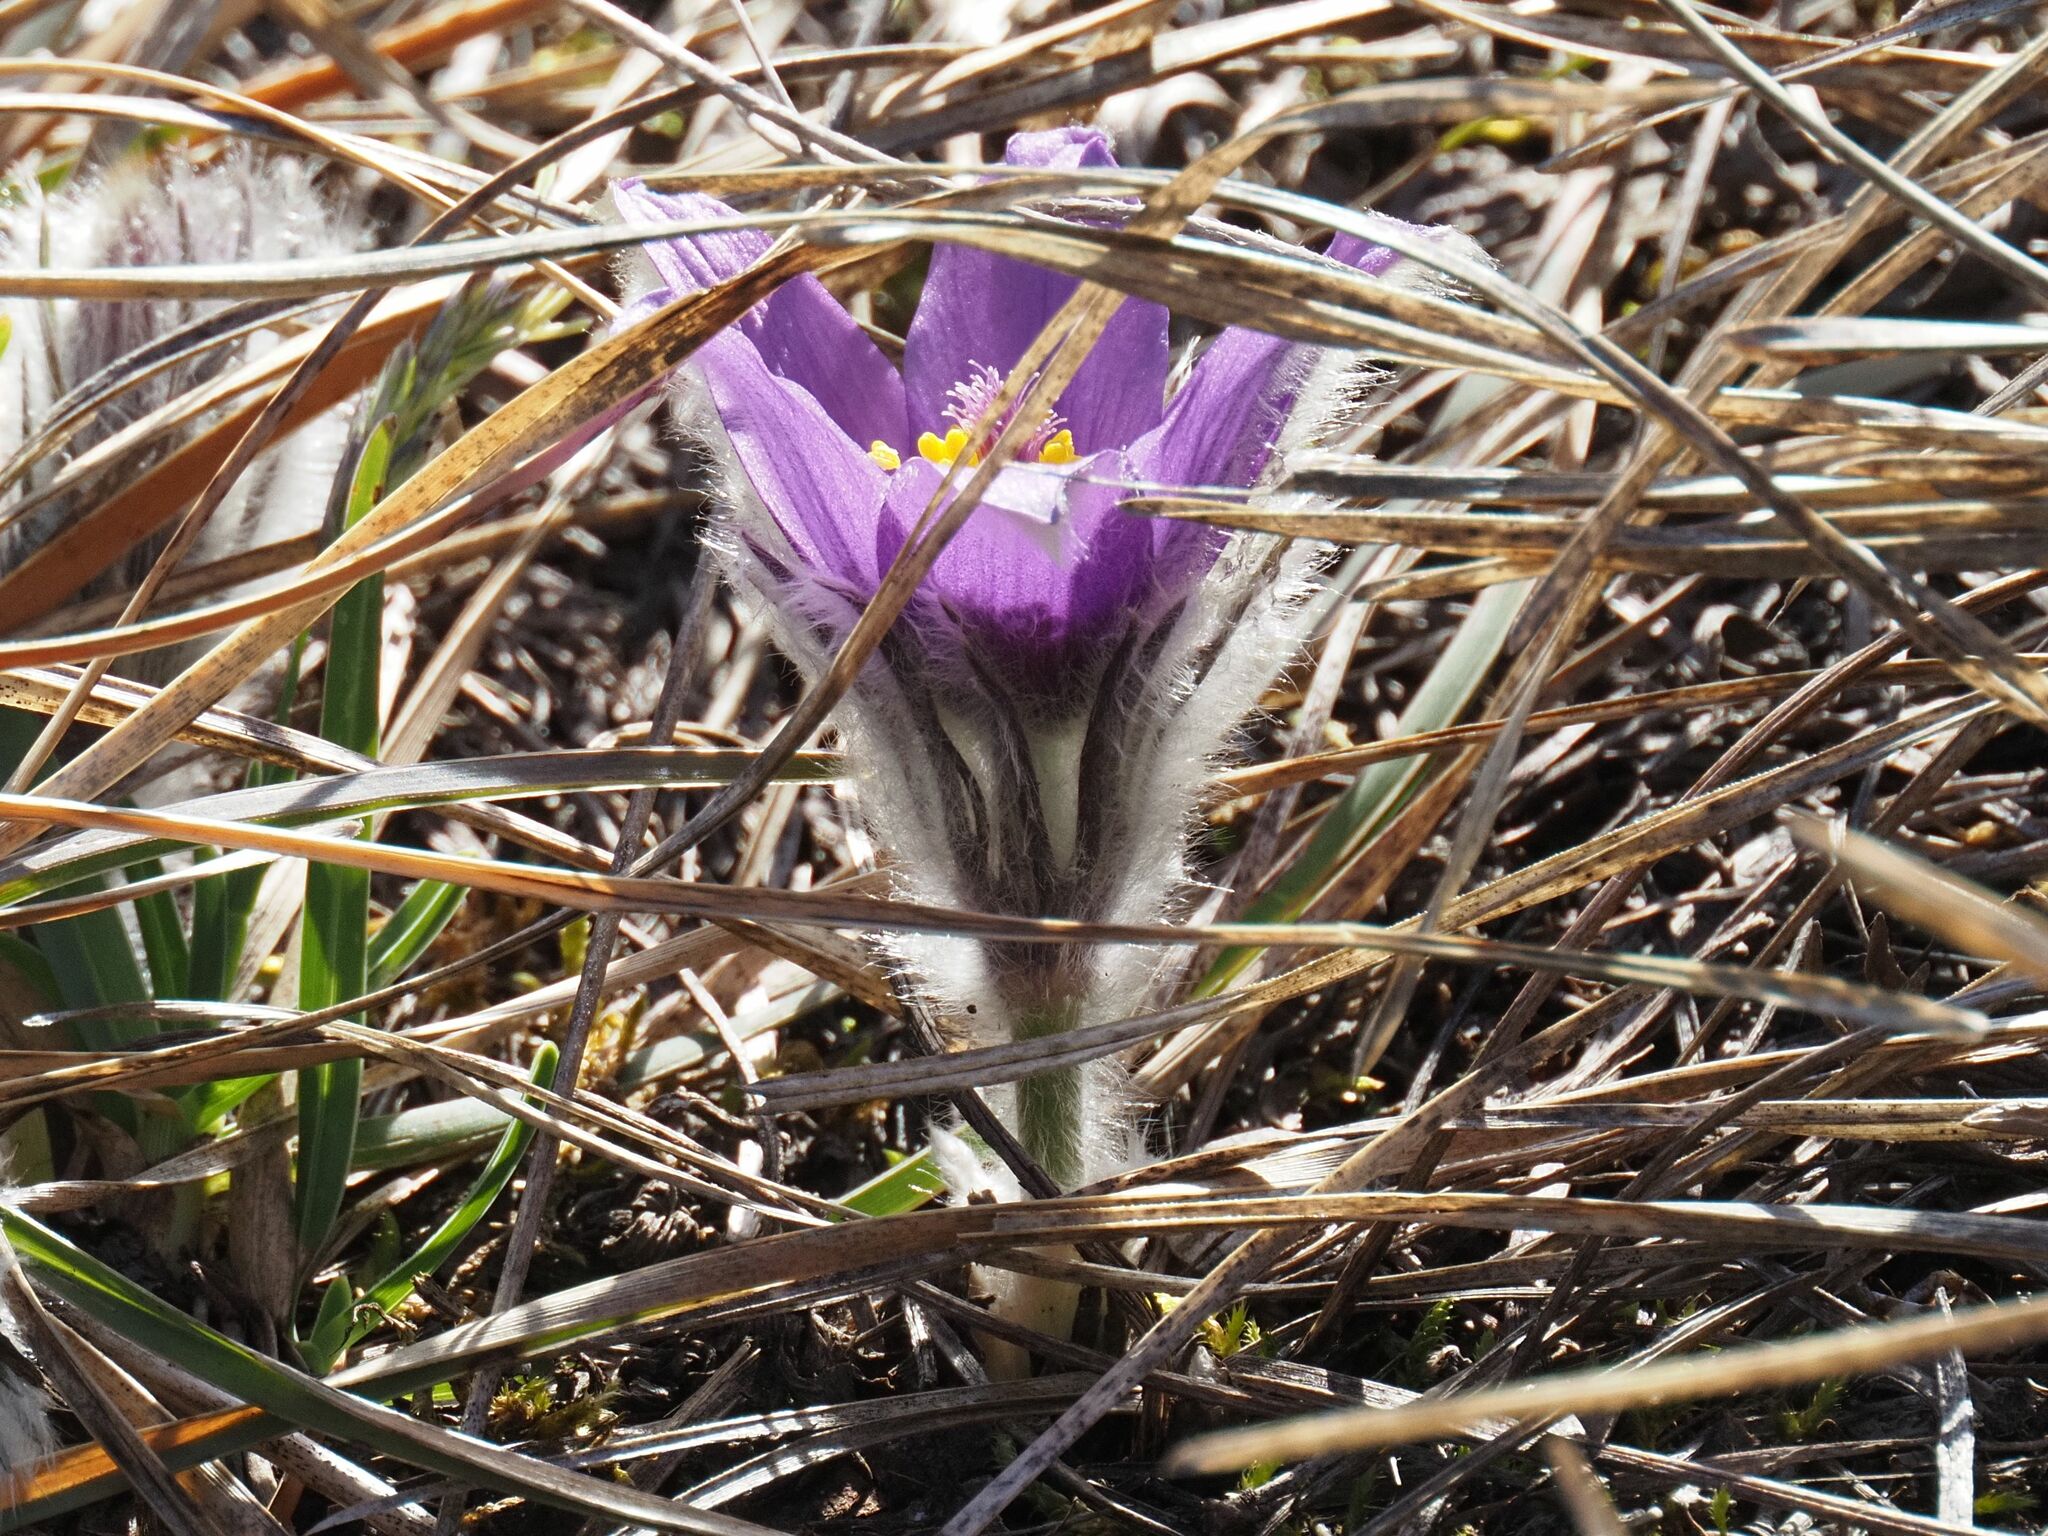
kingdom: Plantae
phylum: Tracheophyta
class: Magnoliopsida
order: Ranunculales
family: Ranunculaceae
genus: Pulsatilla
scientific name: Pulsatilla grandis
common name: Greater pasque flower
